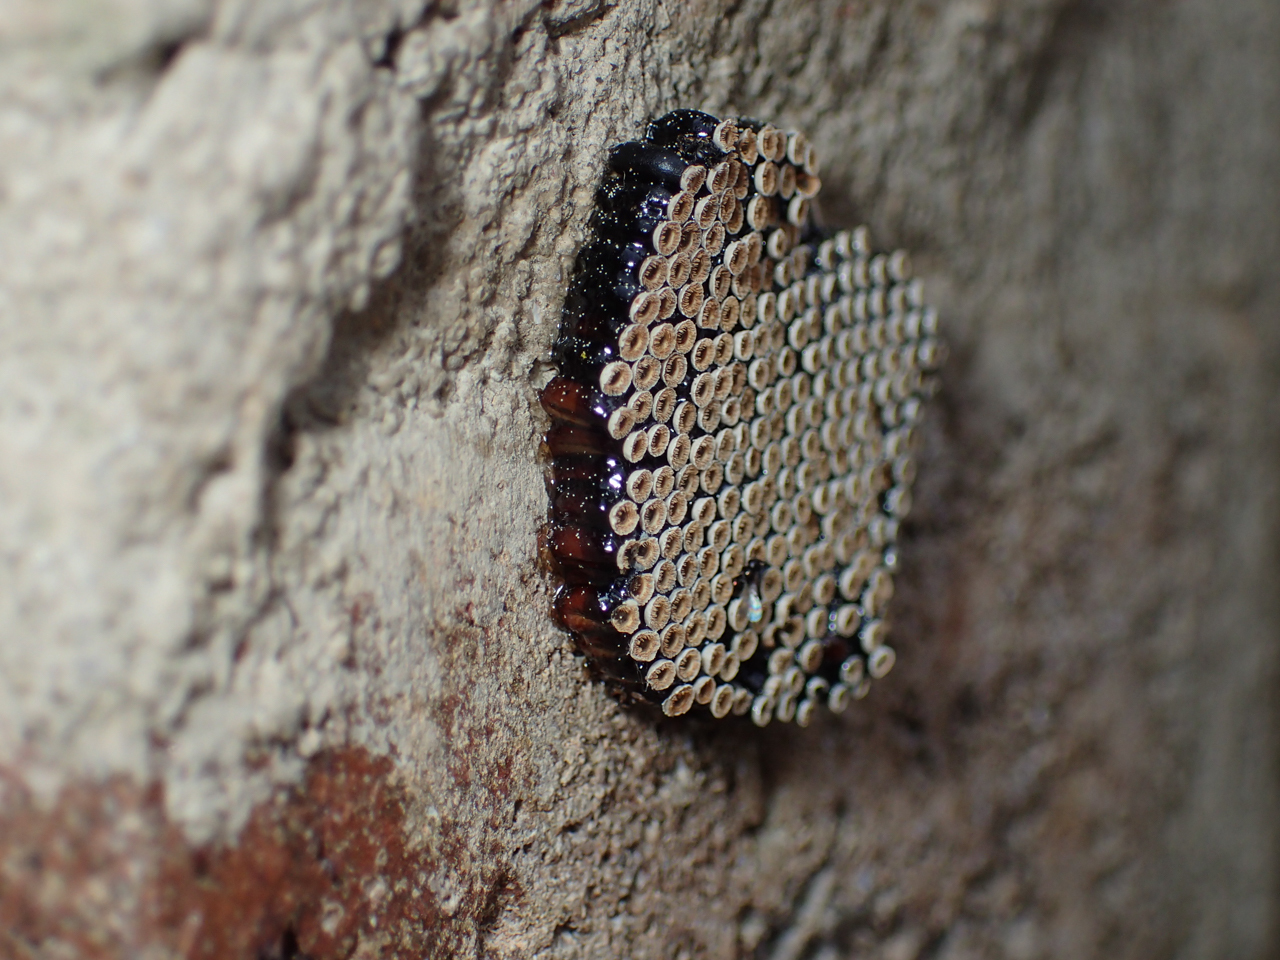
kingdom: Animalia
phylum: Arthropoda
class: Insecta
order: Hemiptera
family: Reduviidae
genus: Arilus
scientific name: Arilus cristatus
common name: North american wheel bug
